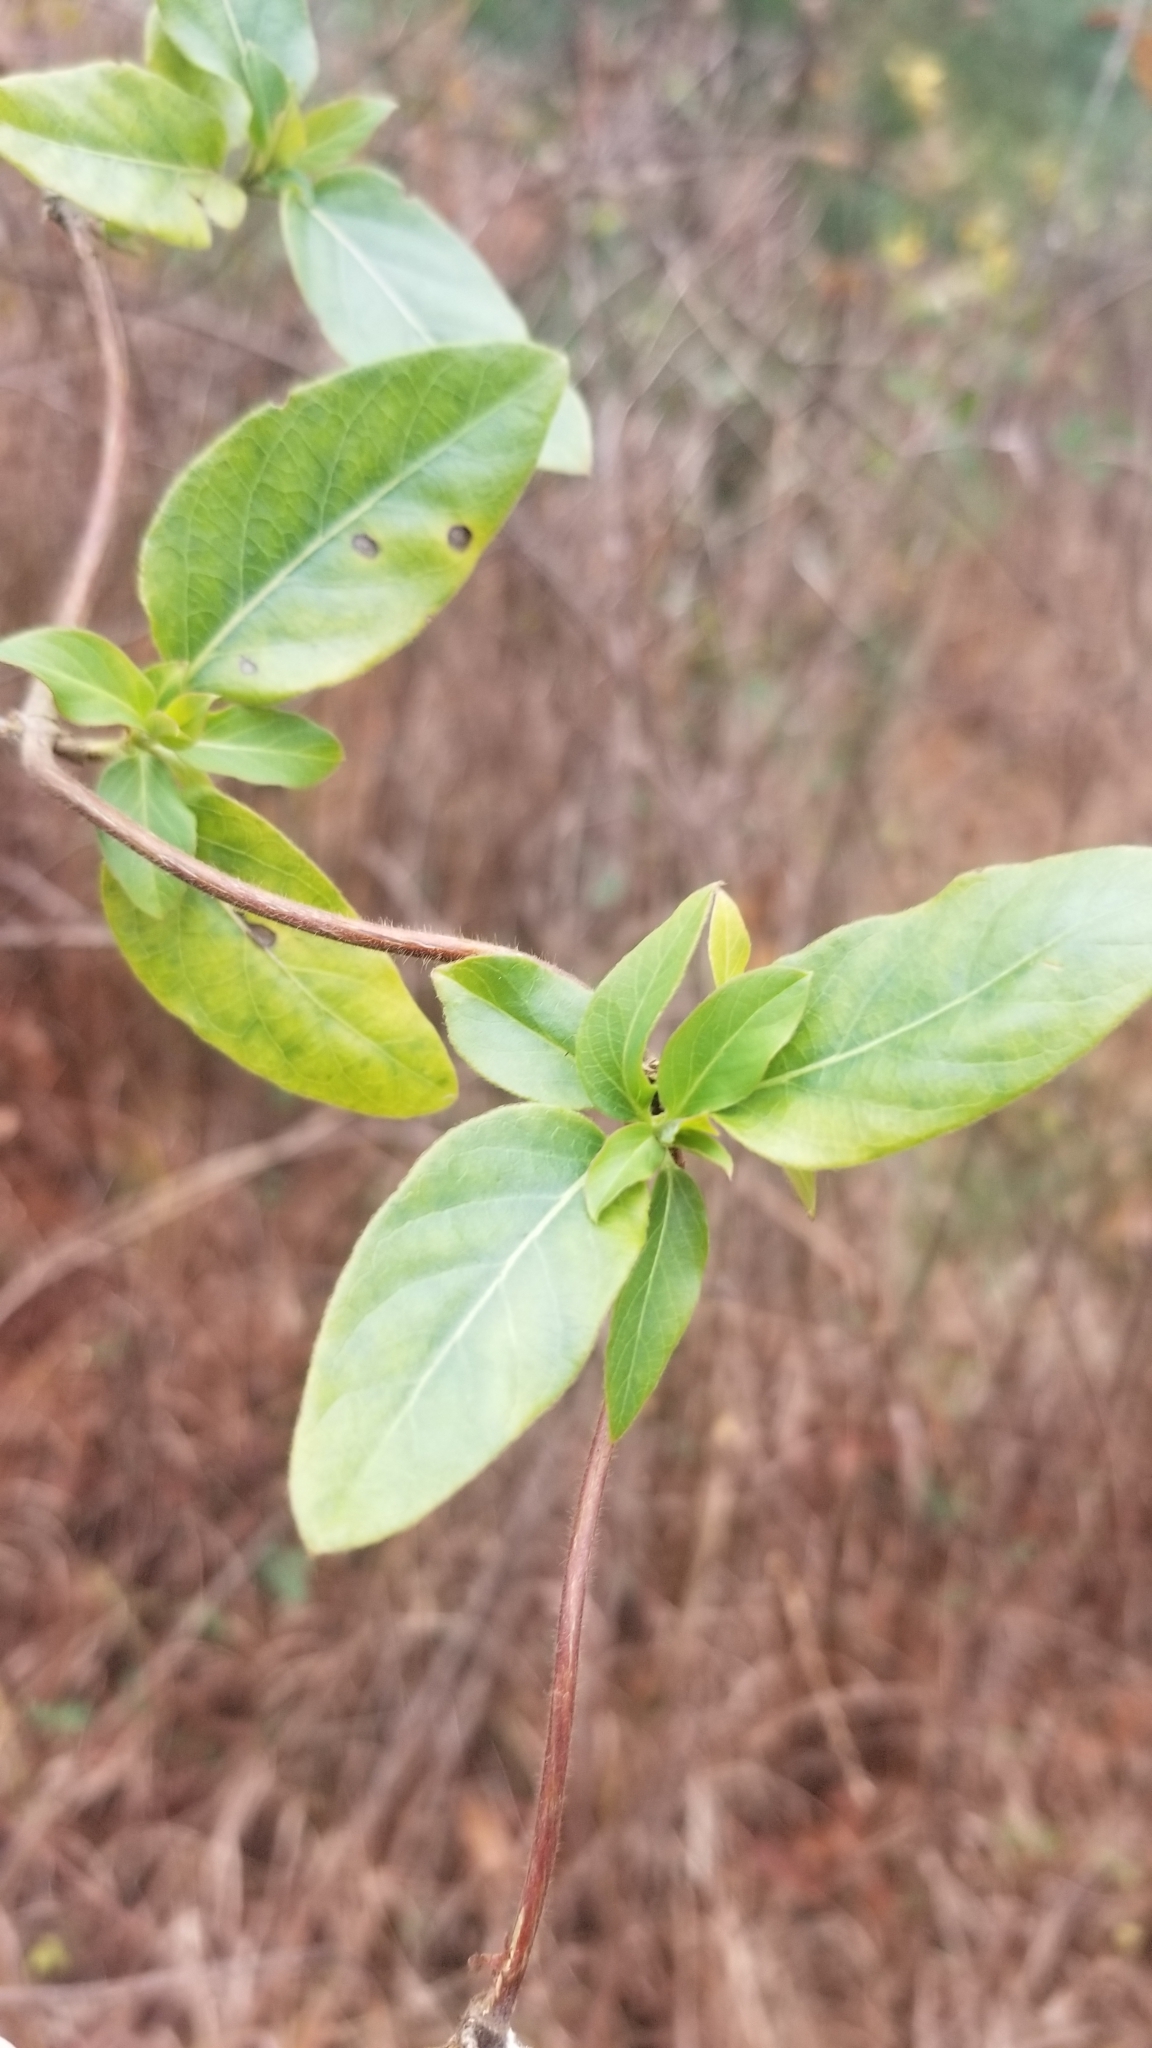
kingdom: Plantae
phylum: Tracheophyta
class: Magnoliopsida
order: Dipsacales
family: Caprifoliaceae
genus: Lonicera
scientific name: Lonicera japonica
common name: Japanese honeysuckle
